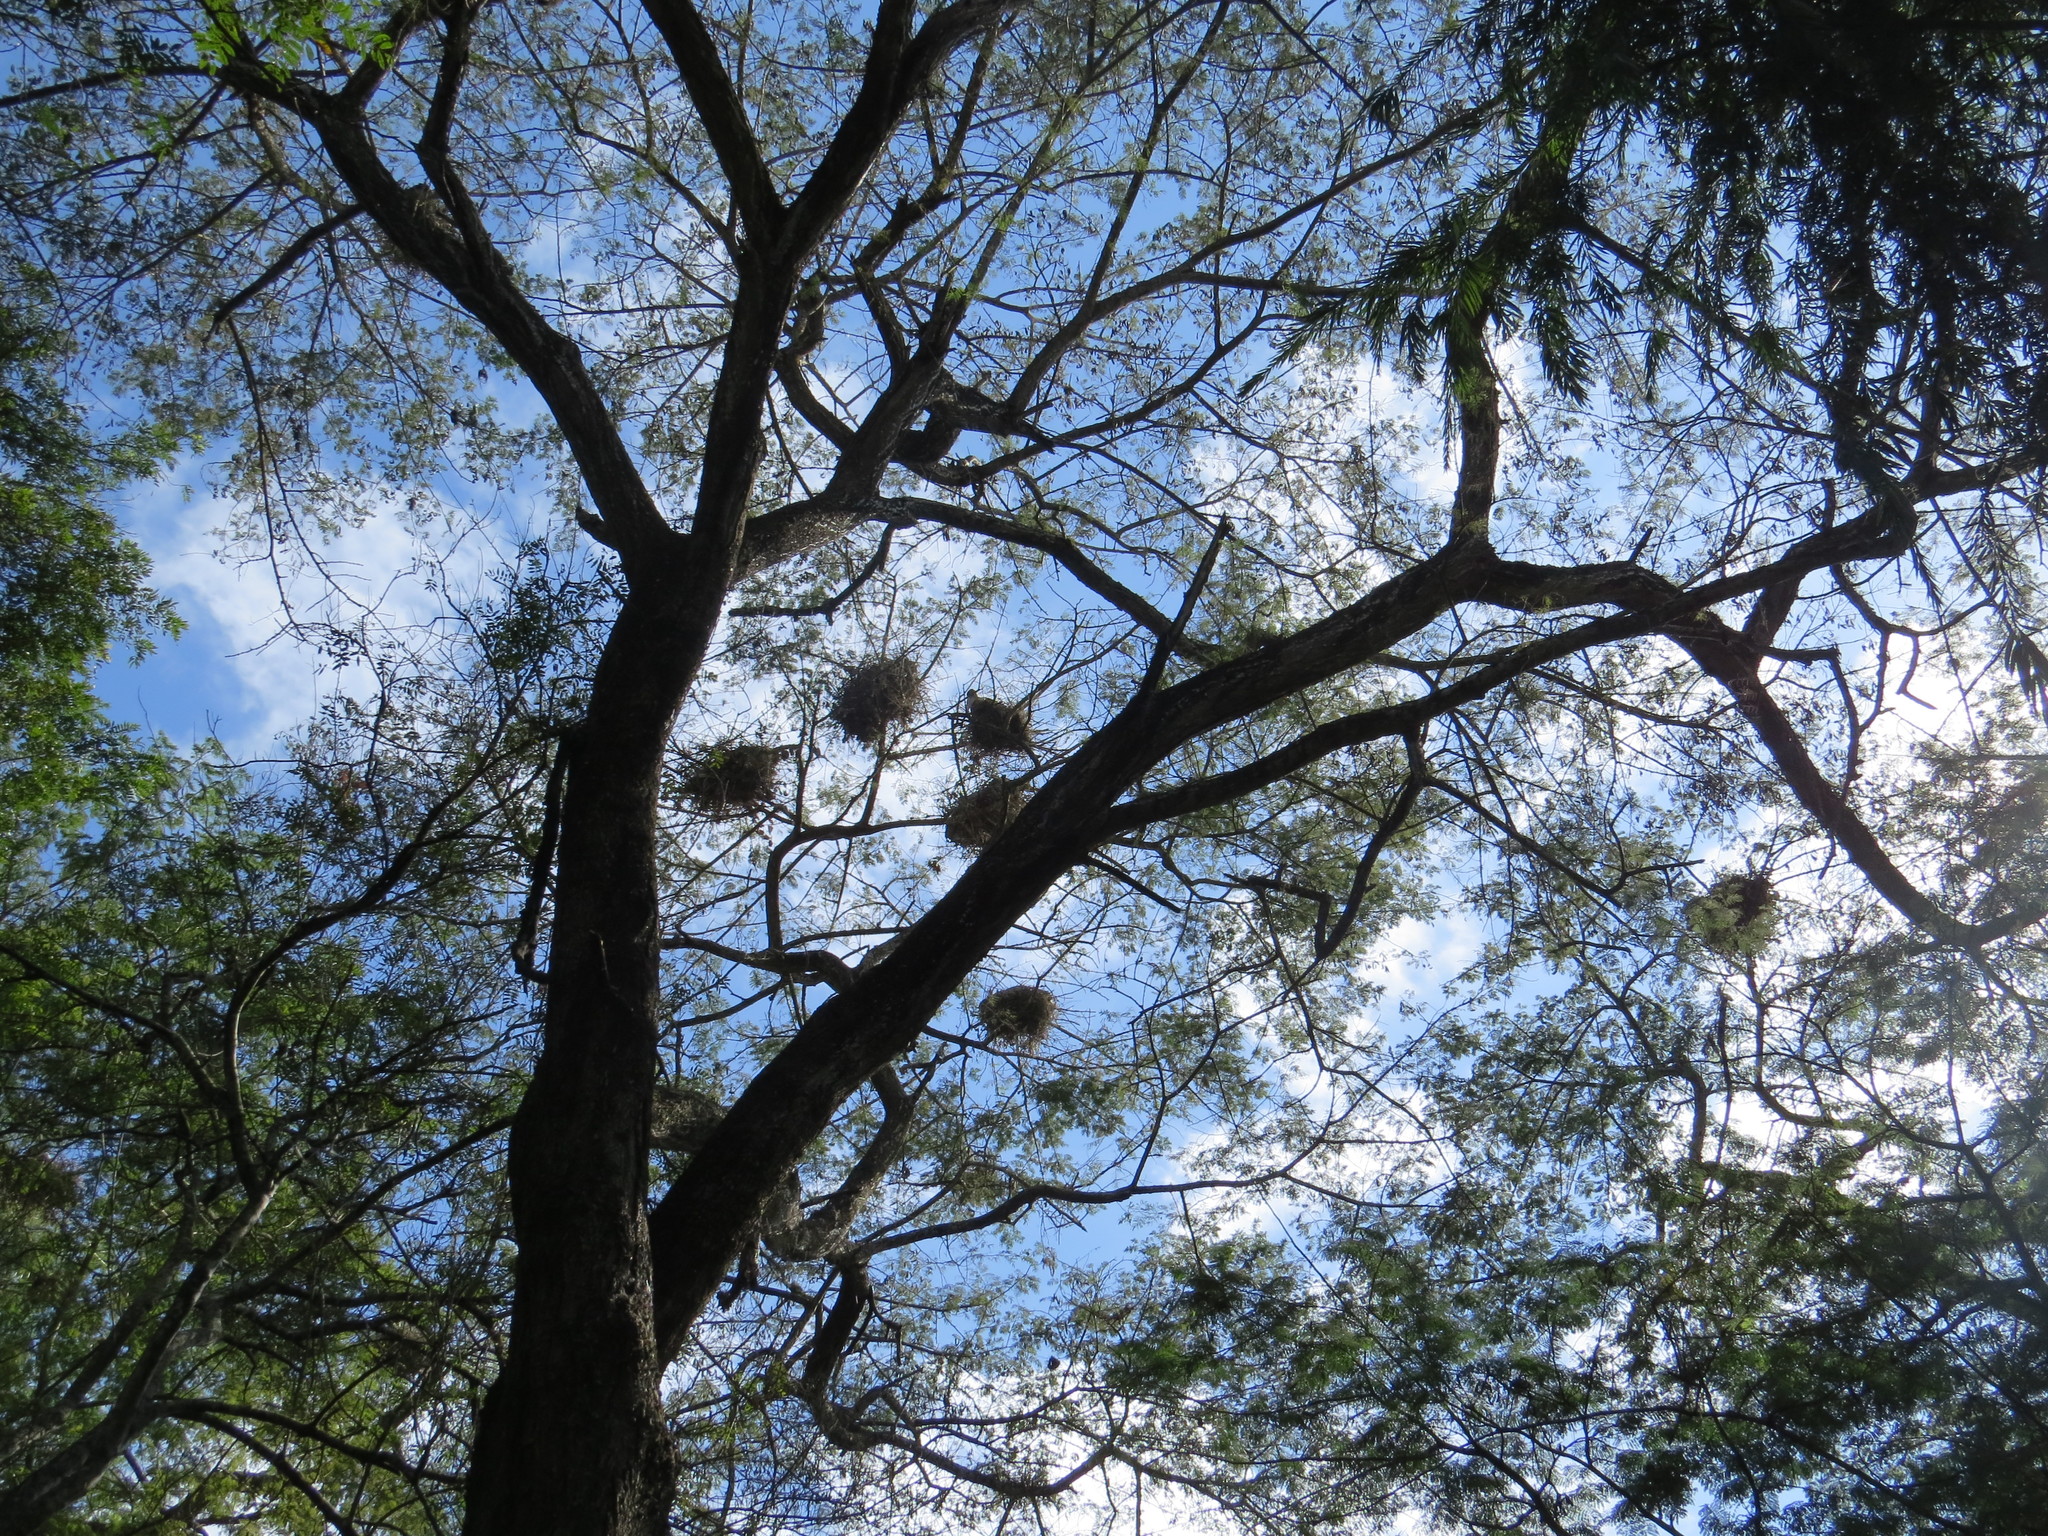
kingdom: Animalia
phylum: Chordata
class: Aves
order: Ciconiiformes
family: Ciconiidae
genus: Leptoptilos
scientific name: Leptoptilos crumenifer
